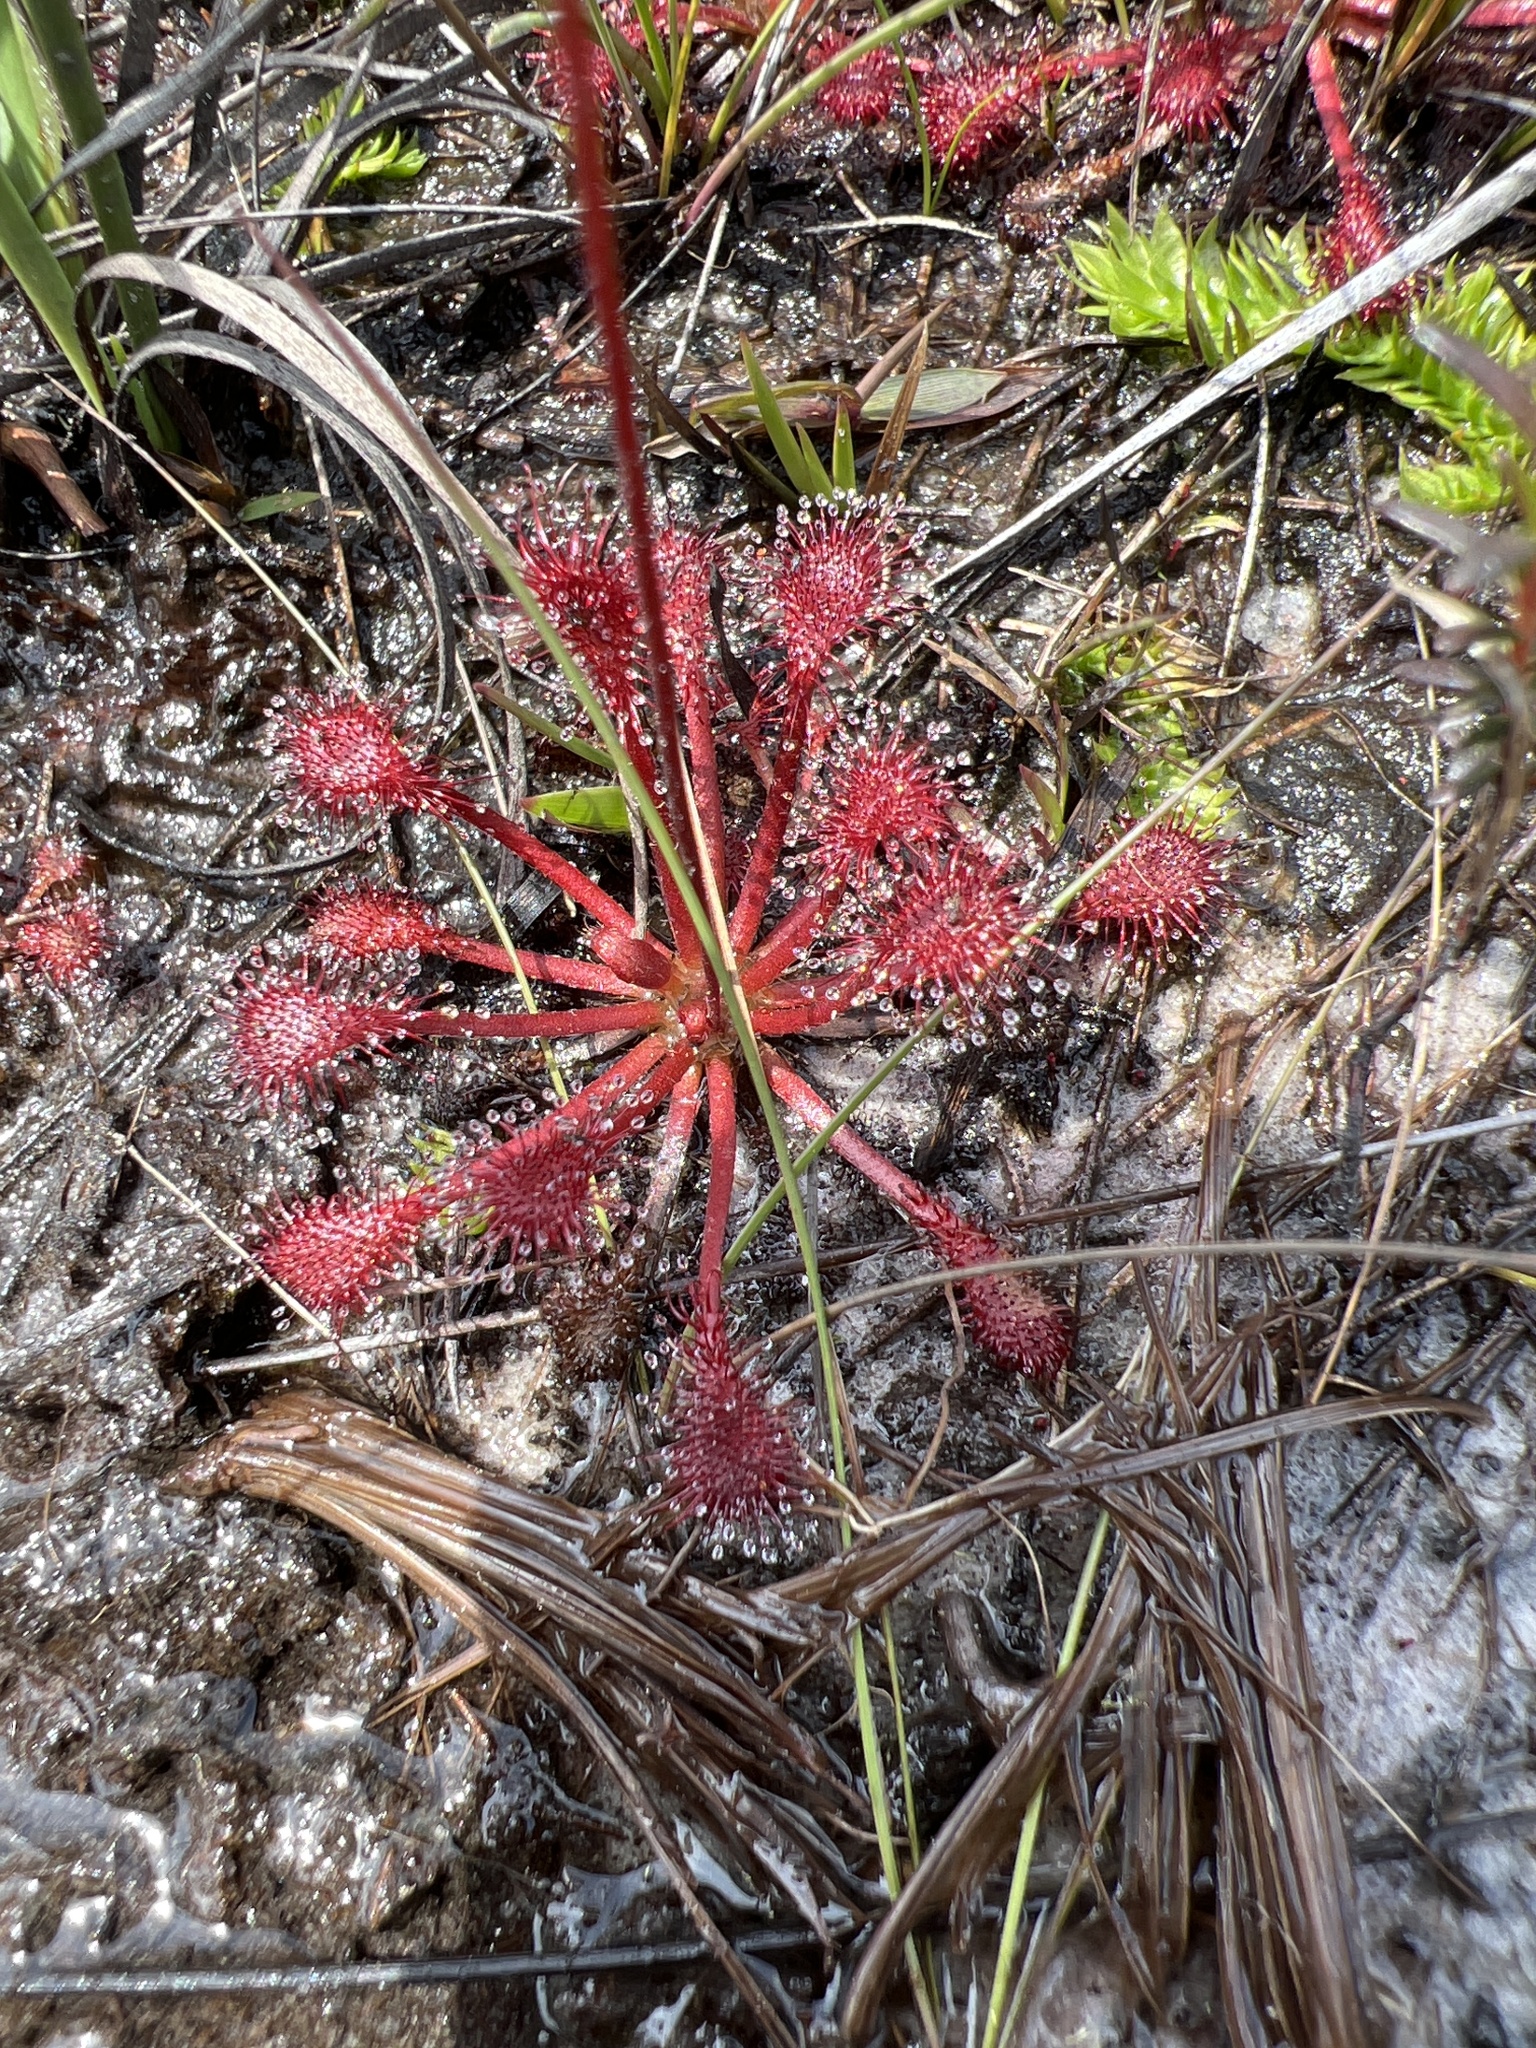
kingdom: Plantae
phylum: Tracheophyta
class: Magnoliopsida
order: Caryophyllales
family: Droseraceae
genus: Drosera
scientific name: Drosera capillaris
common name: Pink sundew
